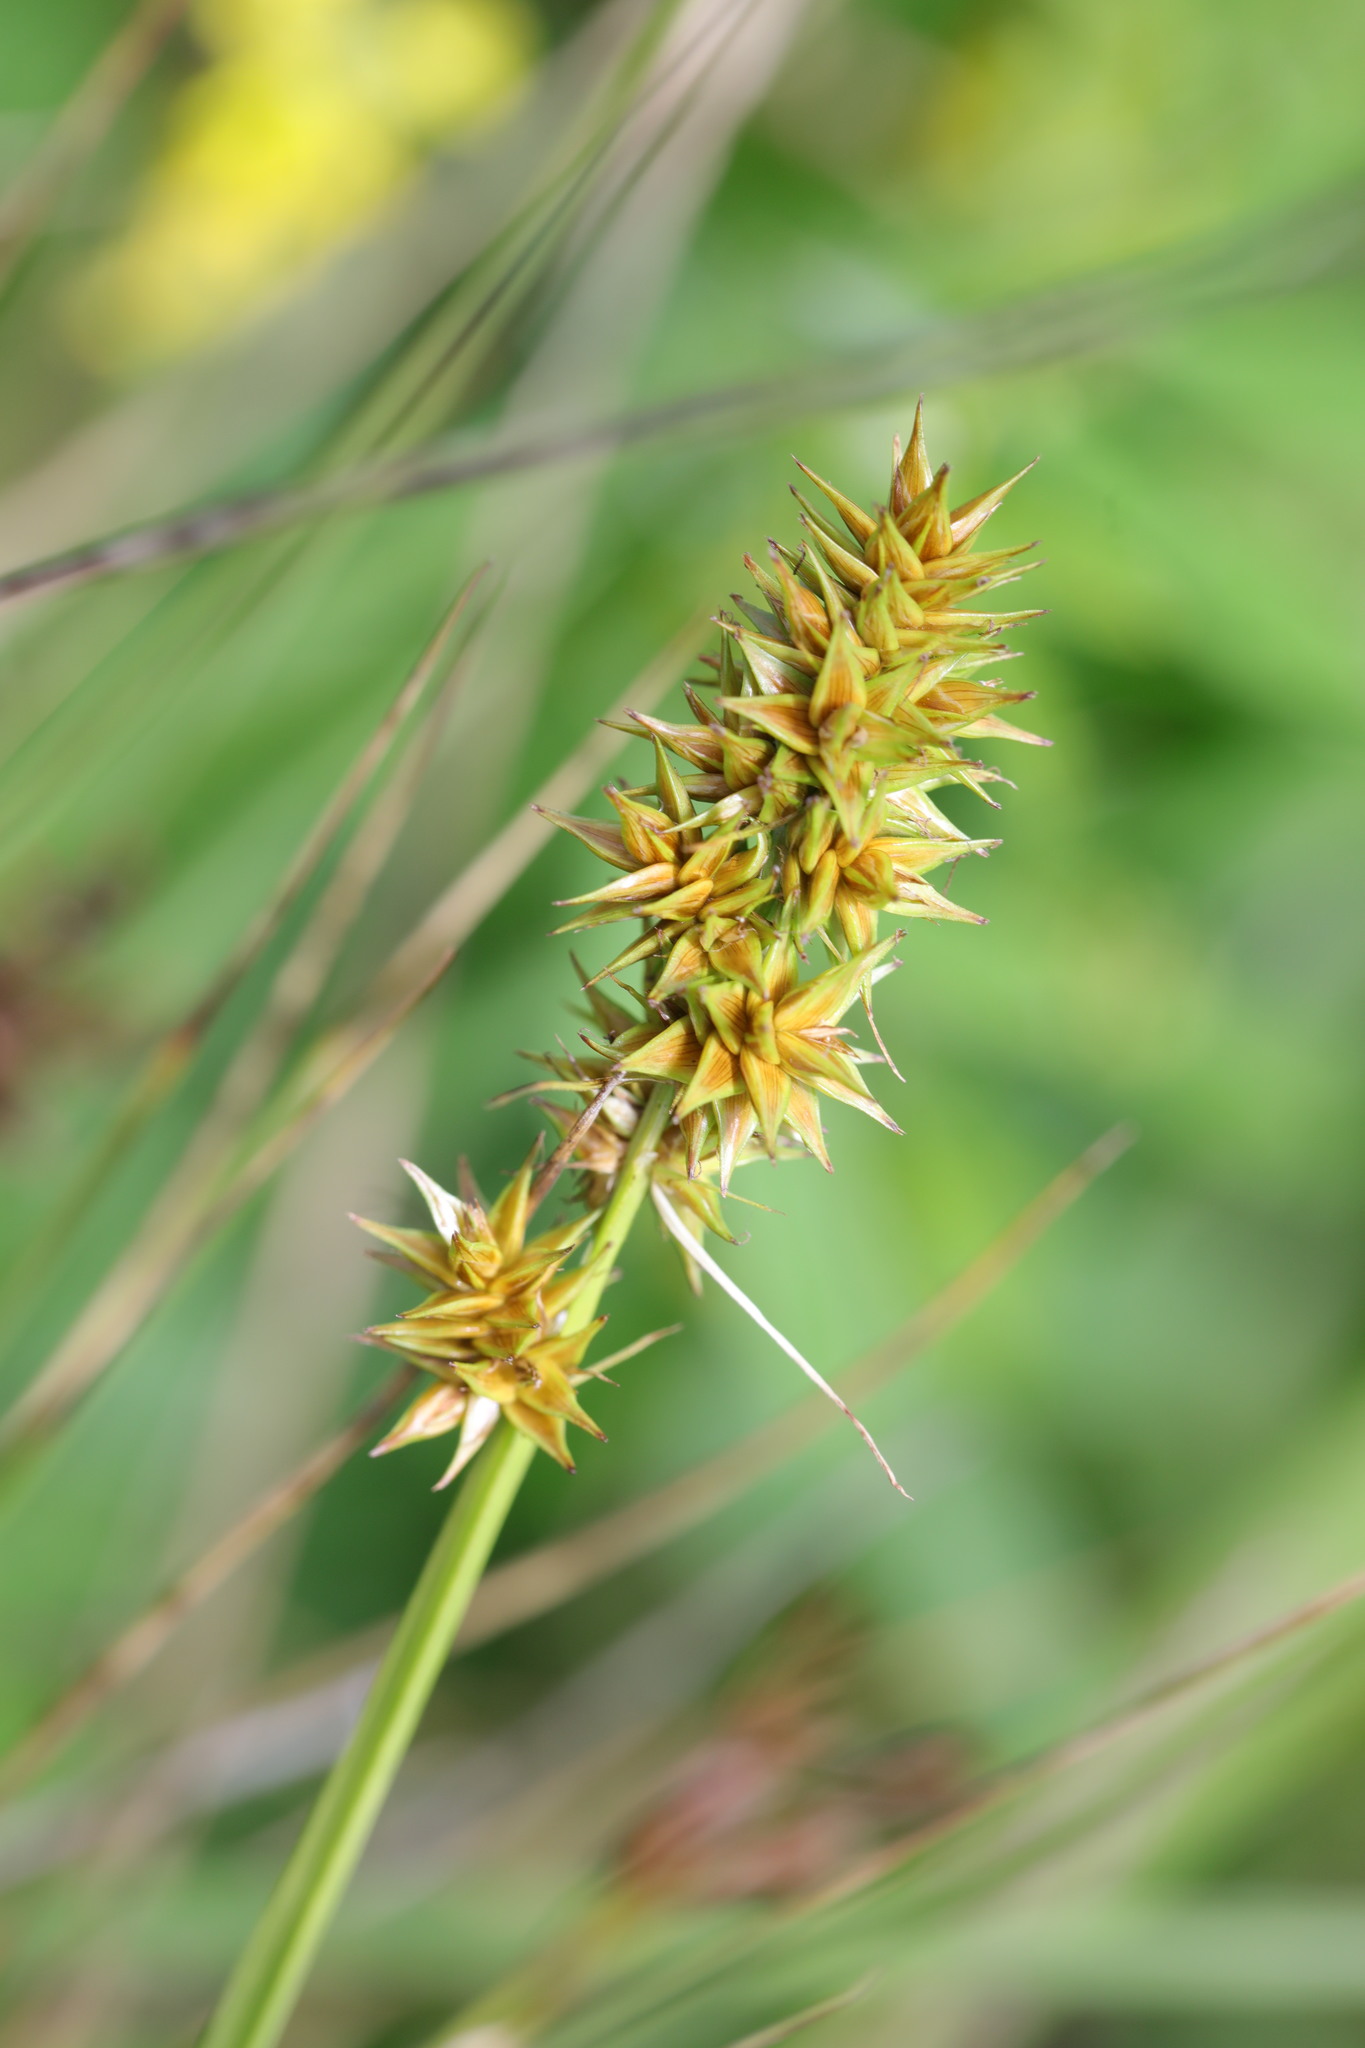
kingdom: Plantae
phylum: Tracheophyta
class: Liliopsida
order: Poales
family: Cyperaceae
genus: Carex
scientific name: Carex otrubae
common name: False fox-sedge
